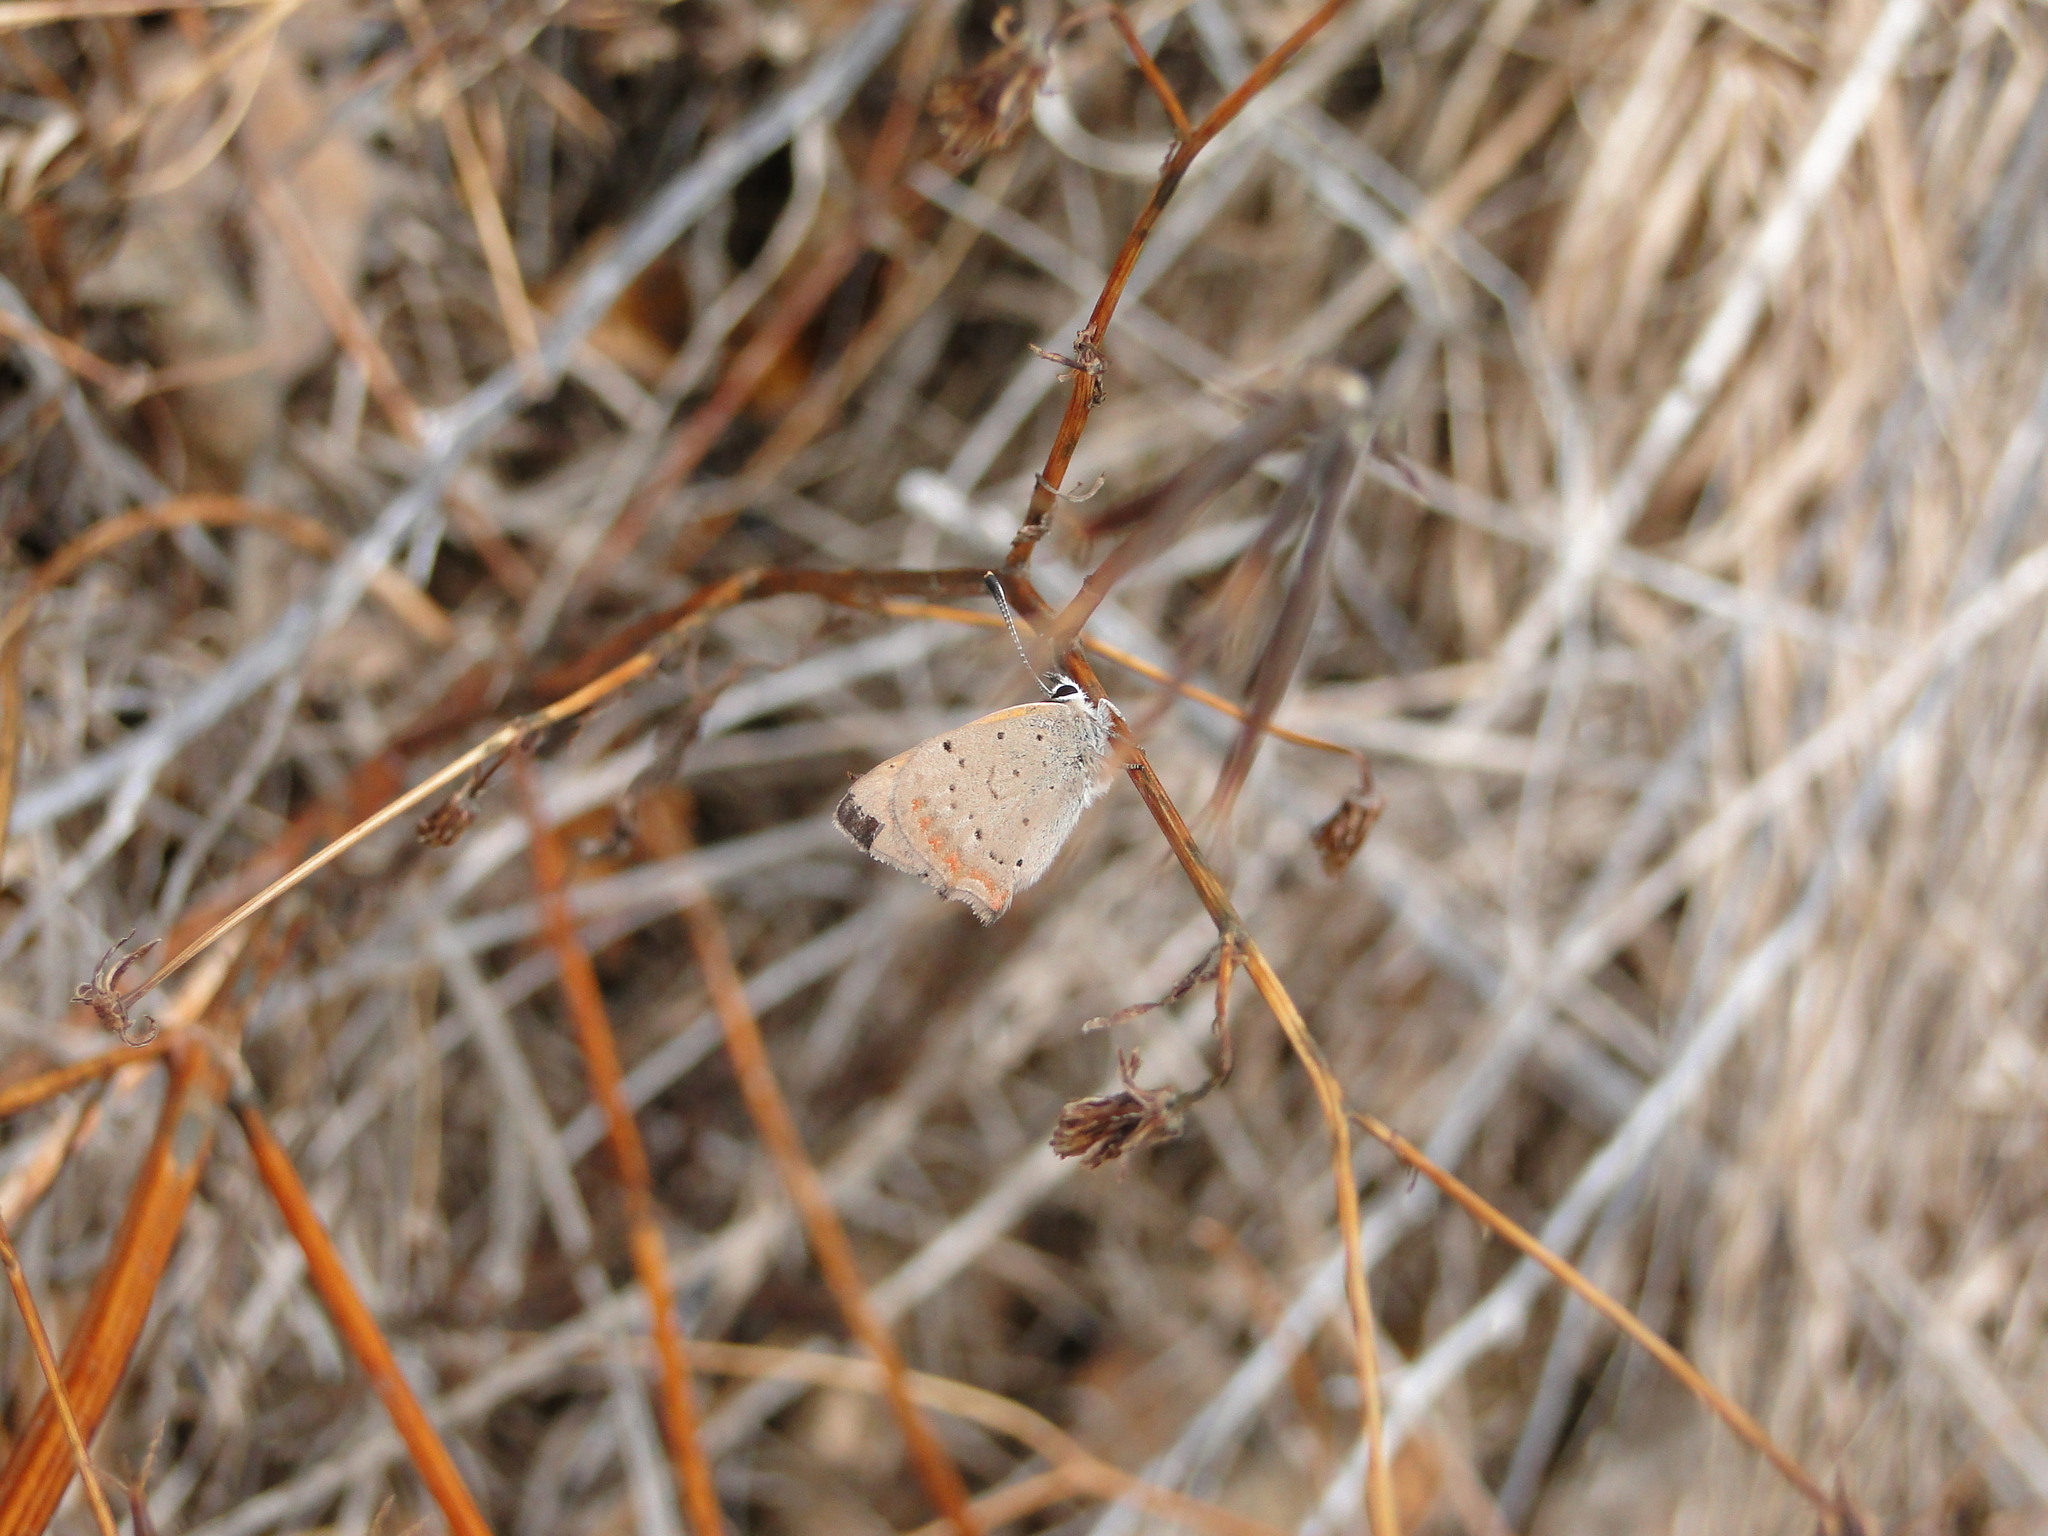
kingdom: Animalia
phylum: Arthropoda
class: Insecta
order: Lepidoptera
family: Lycaenidae
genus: Lycaena
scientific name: Lycaena phlaeas
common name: Small copper
